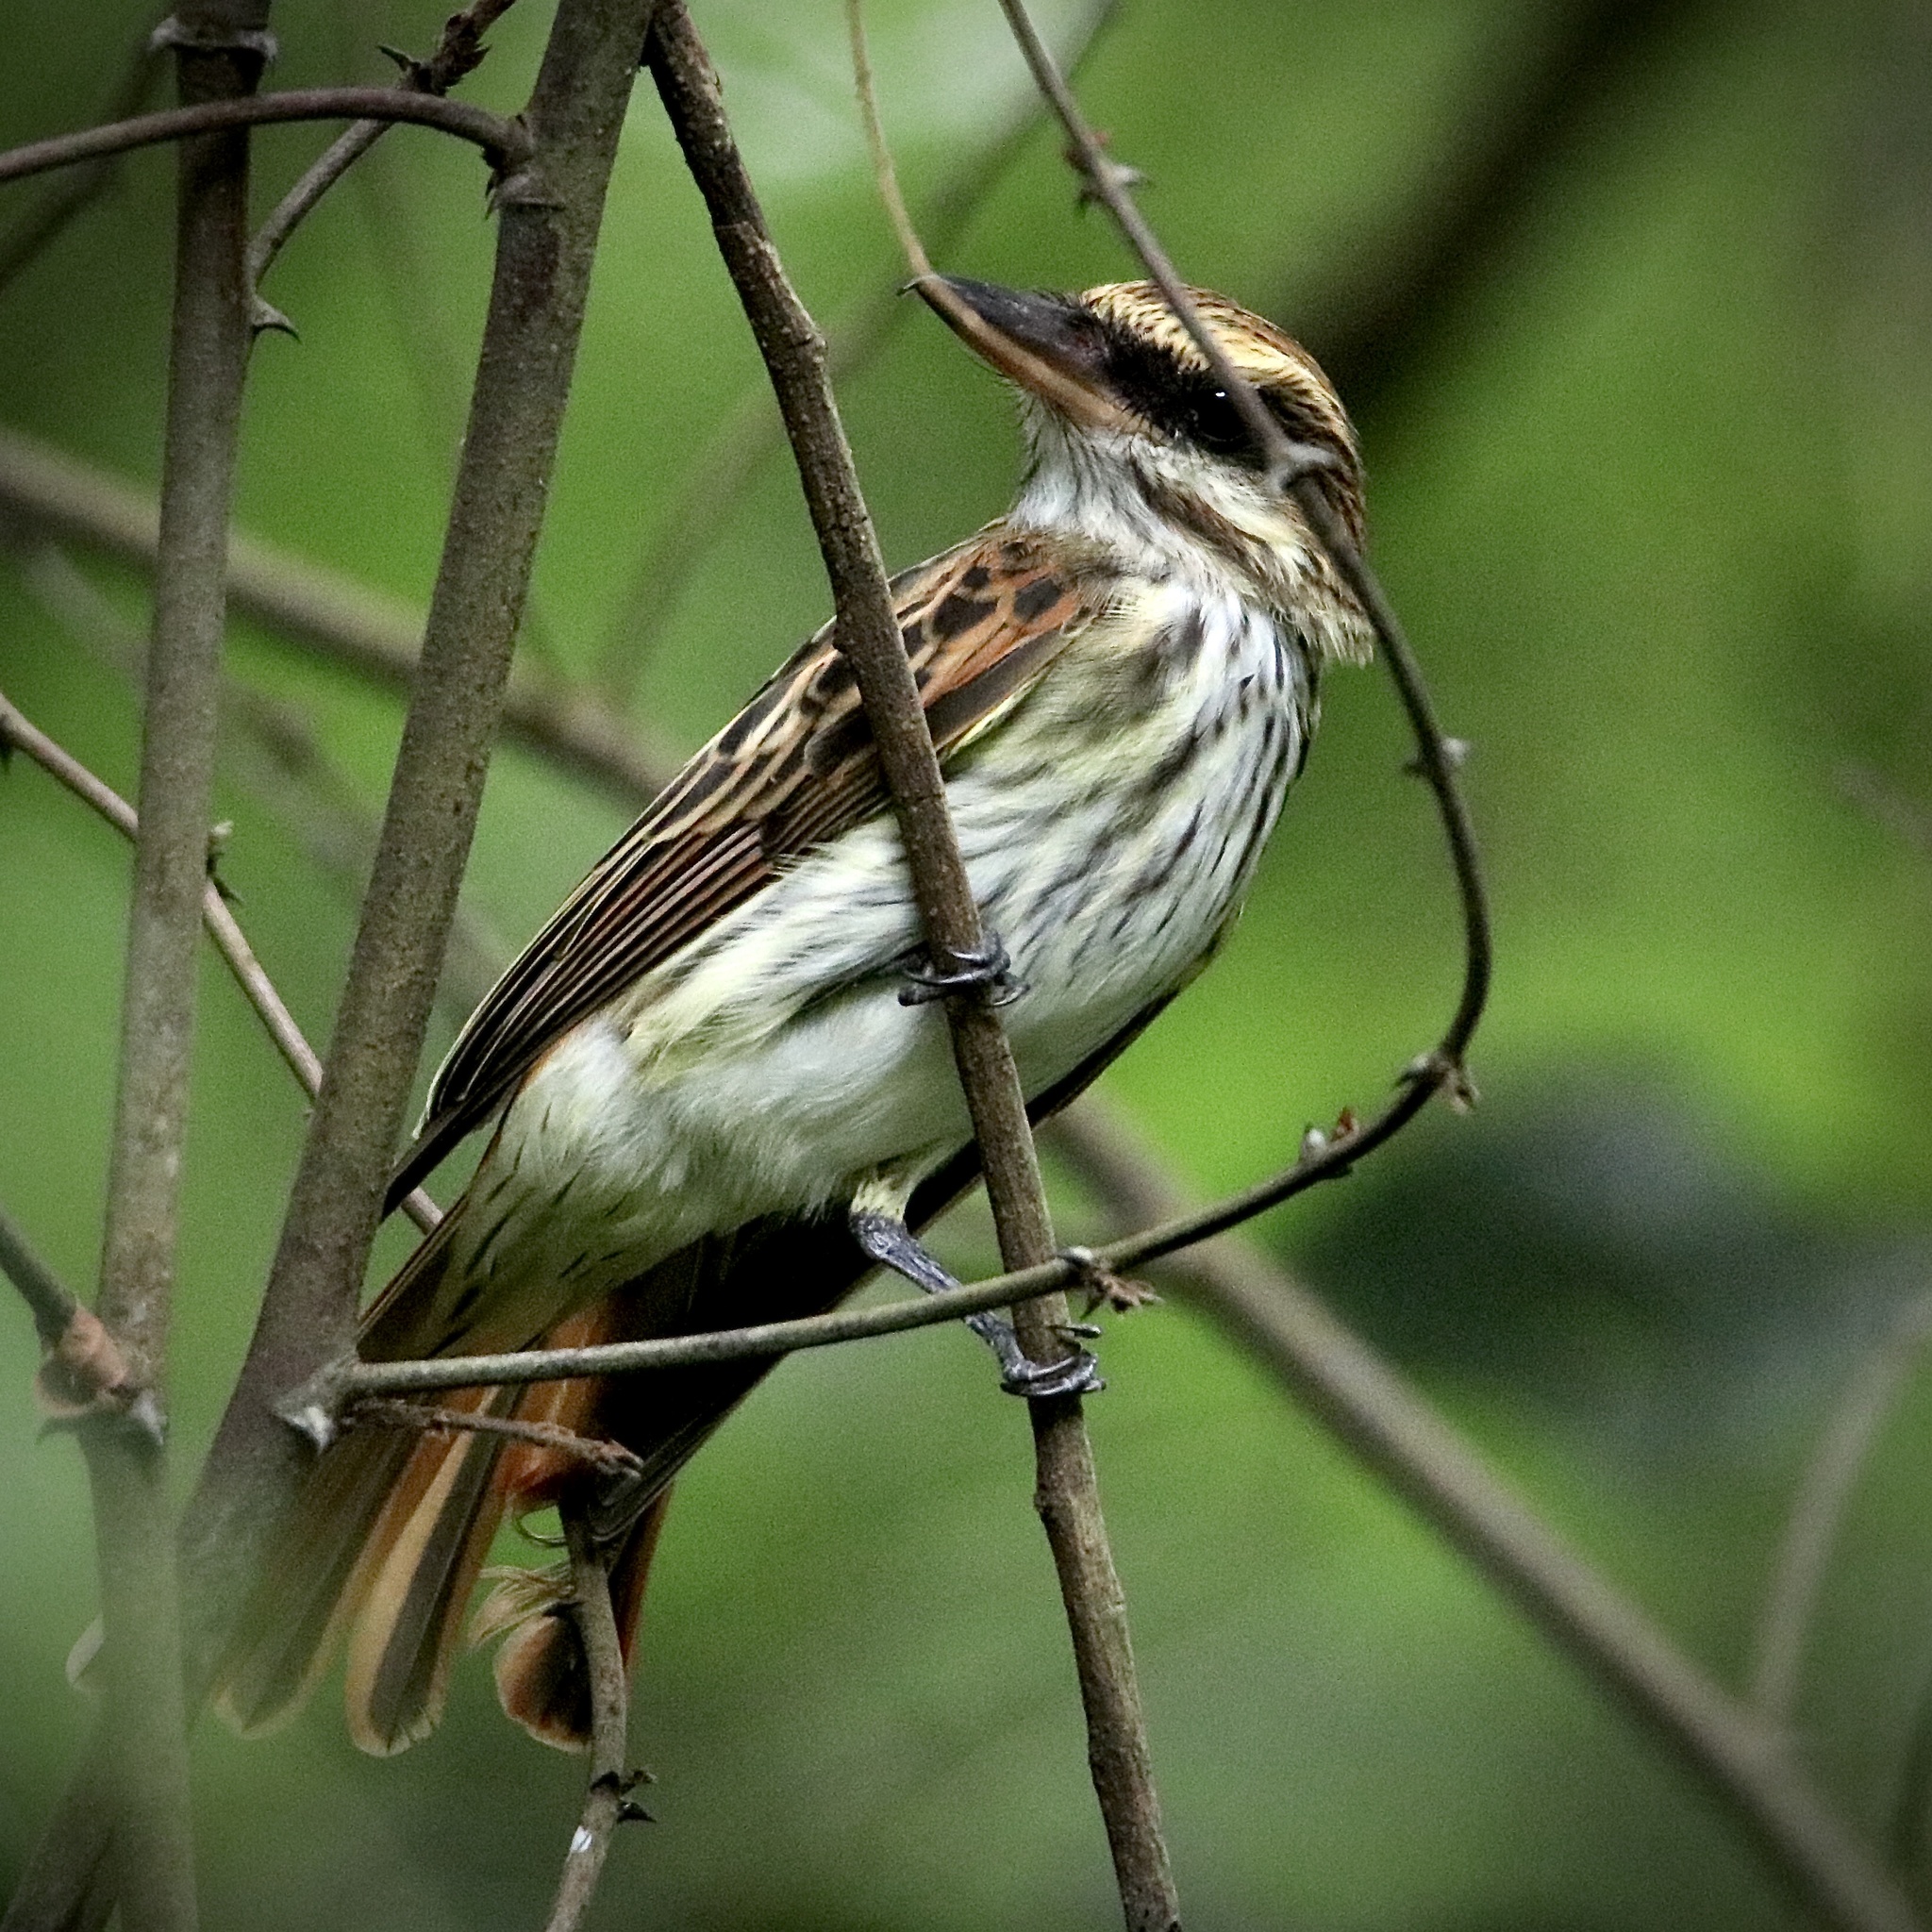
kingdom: Animalia
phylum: Chordata
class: Aves
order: Passeriformes
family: Tyrannidae
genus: Myiodynastes
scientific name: Myiodynastes maculatus
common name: Streaked flycatcher
